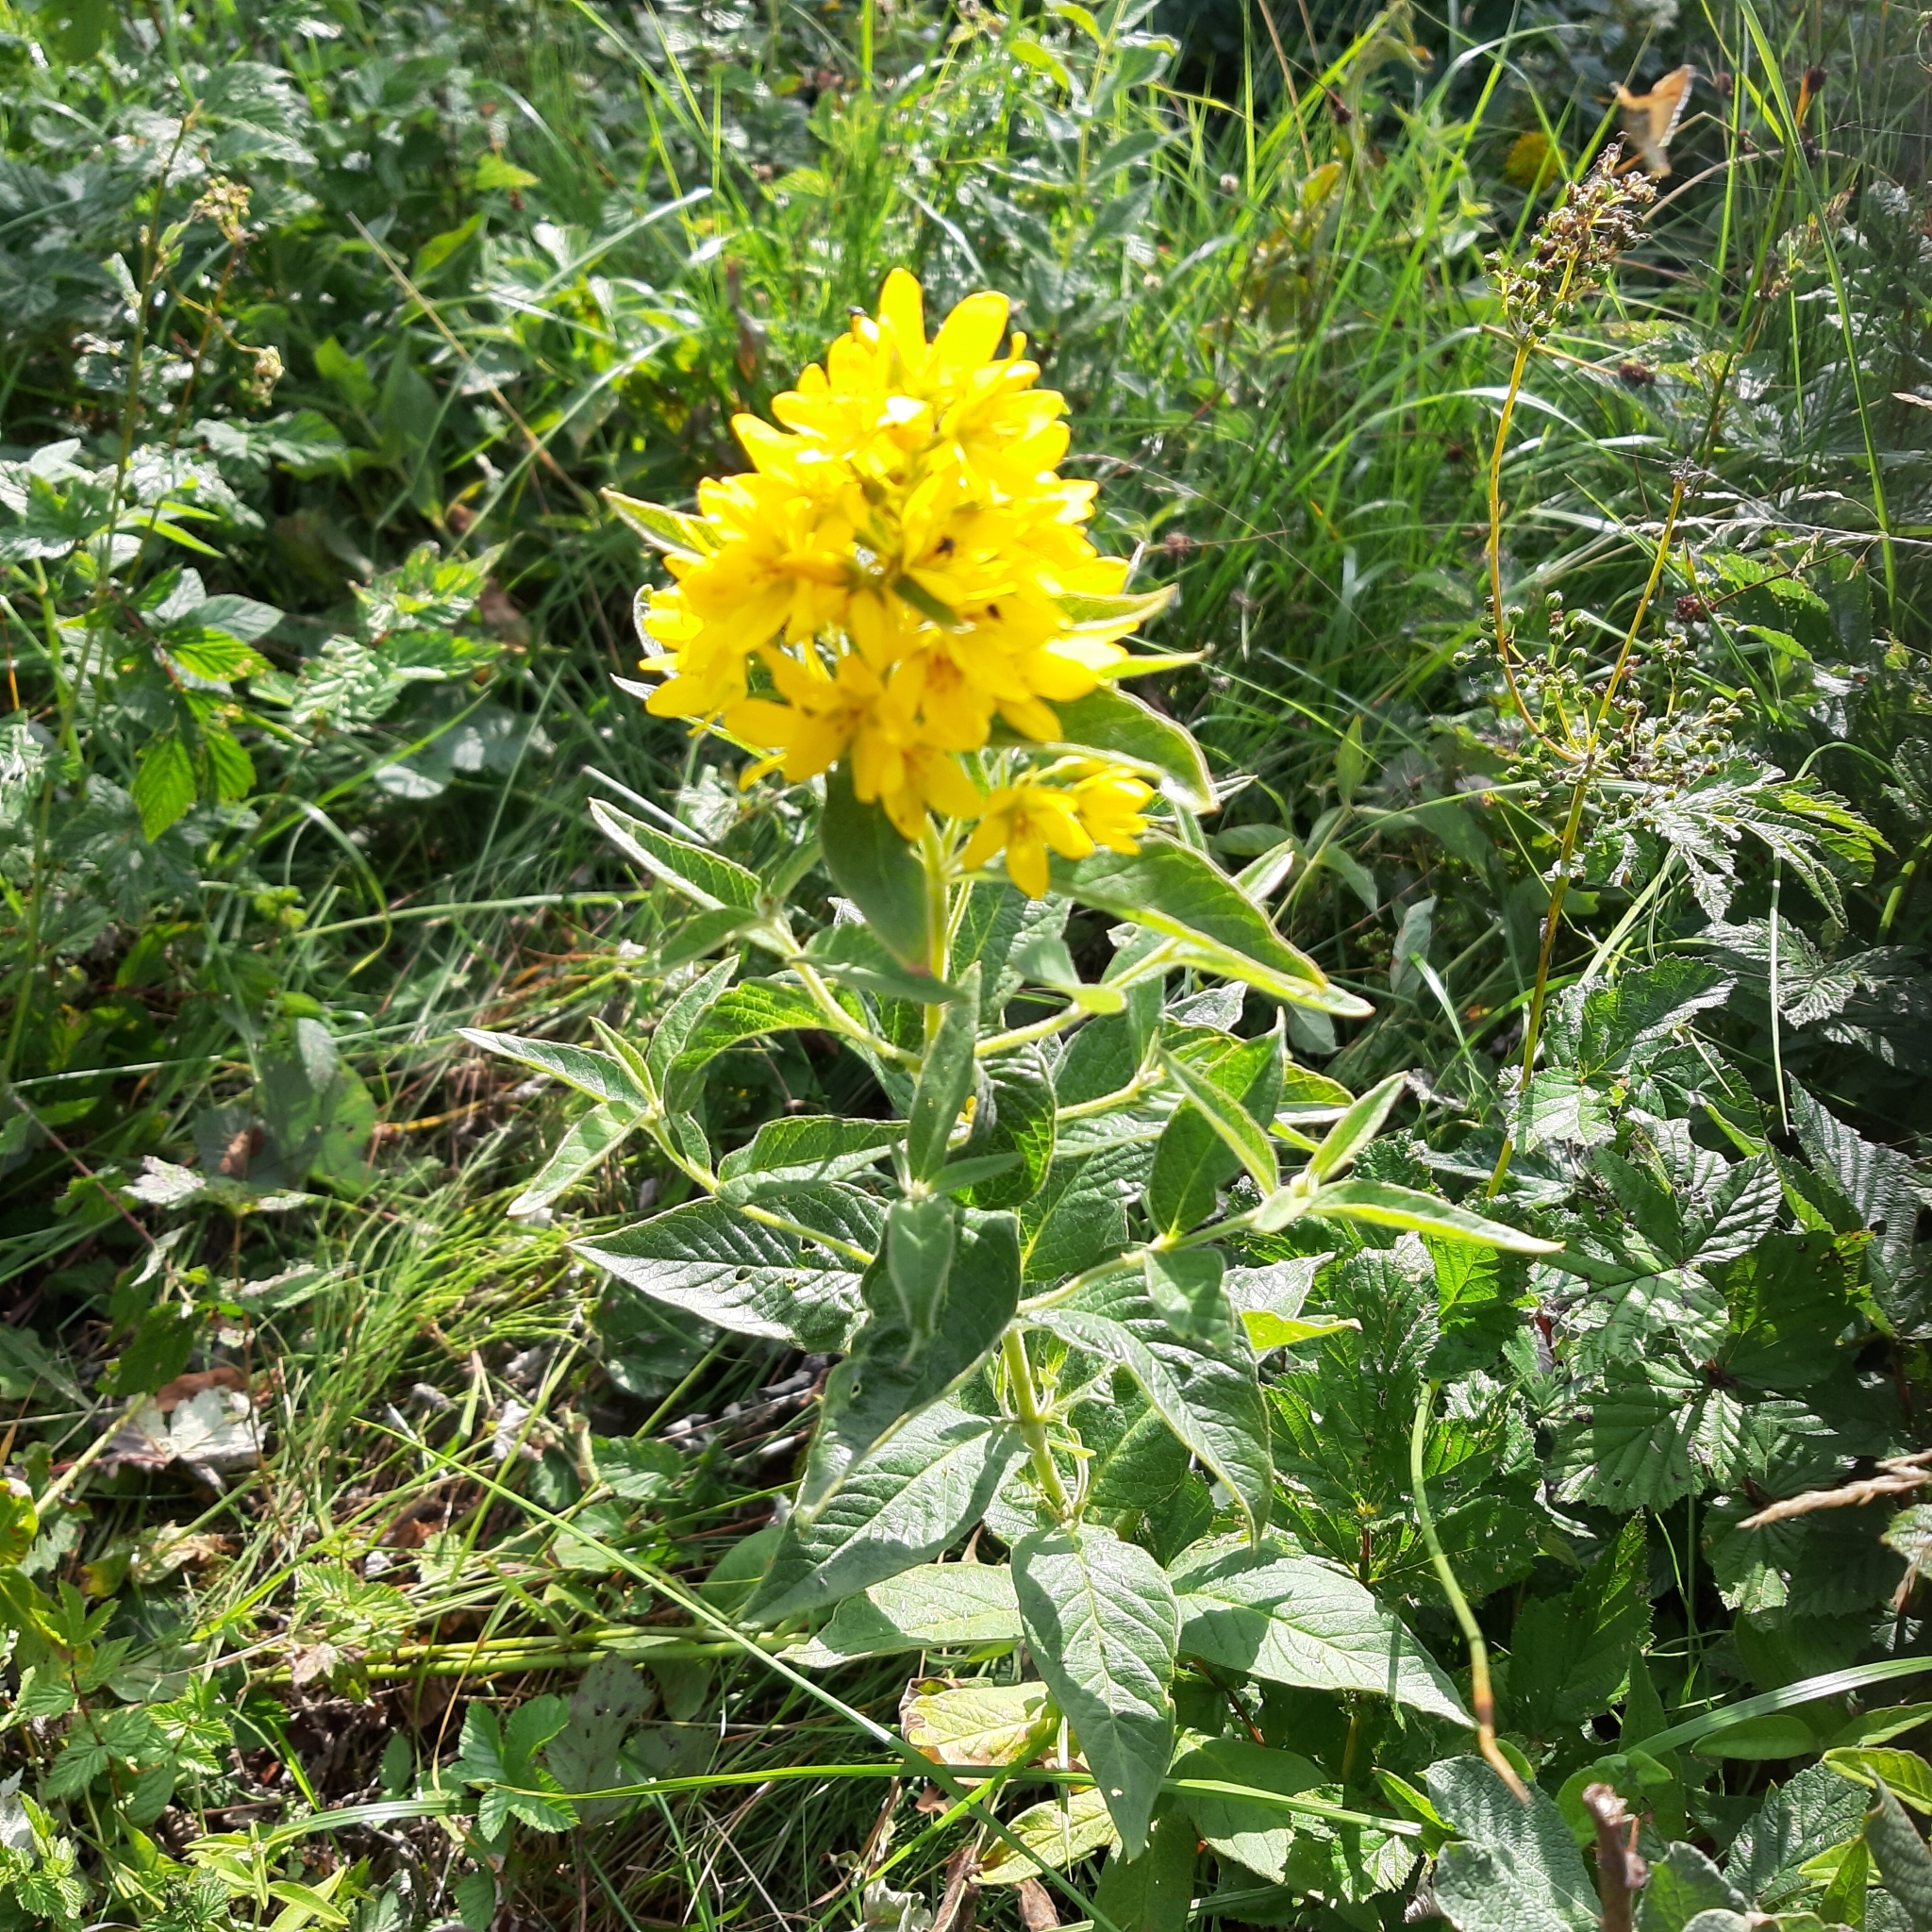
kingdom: Plantae
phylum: Tracheophyta
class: Magnoliopsida
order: Ericales
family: Primulaceae
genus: Lysimachia
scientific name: Lysimachia vulgaris
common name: Yellow loosestrife
